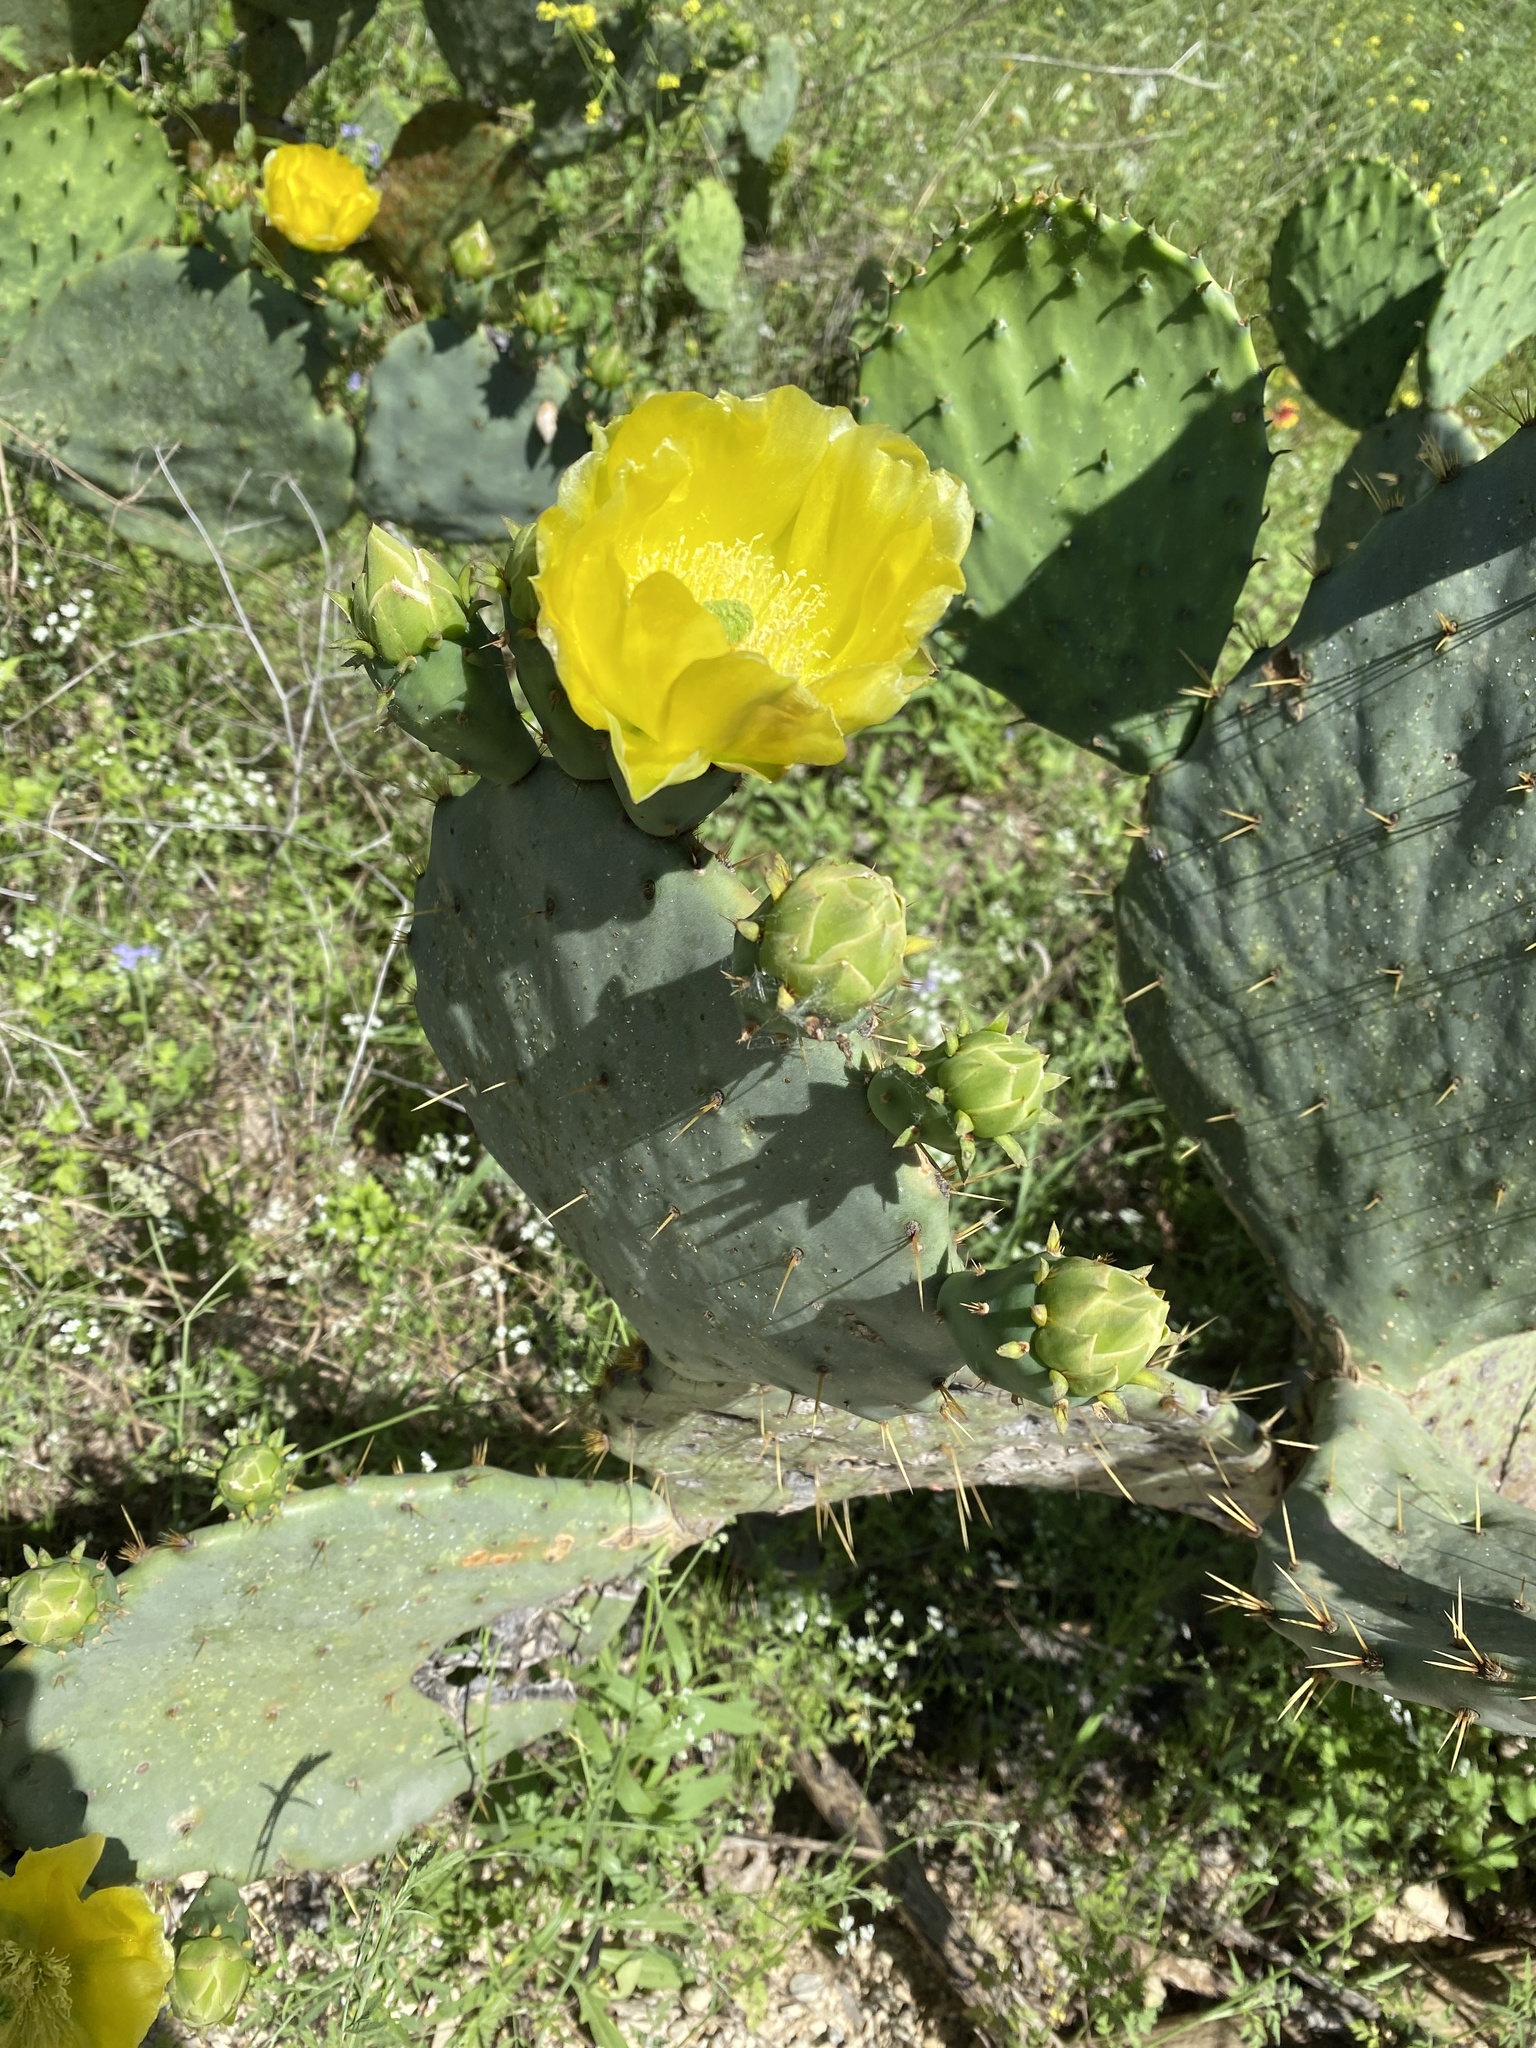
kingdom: Plantae
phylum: Tracheophyta
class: Magnoliopsida
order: Caryophyllales
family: Cactaceae
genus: Opuntia
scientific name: Opuntia engelmannii
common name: Cactus-apple
